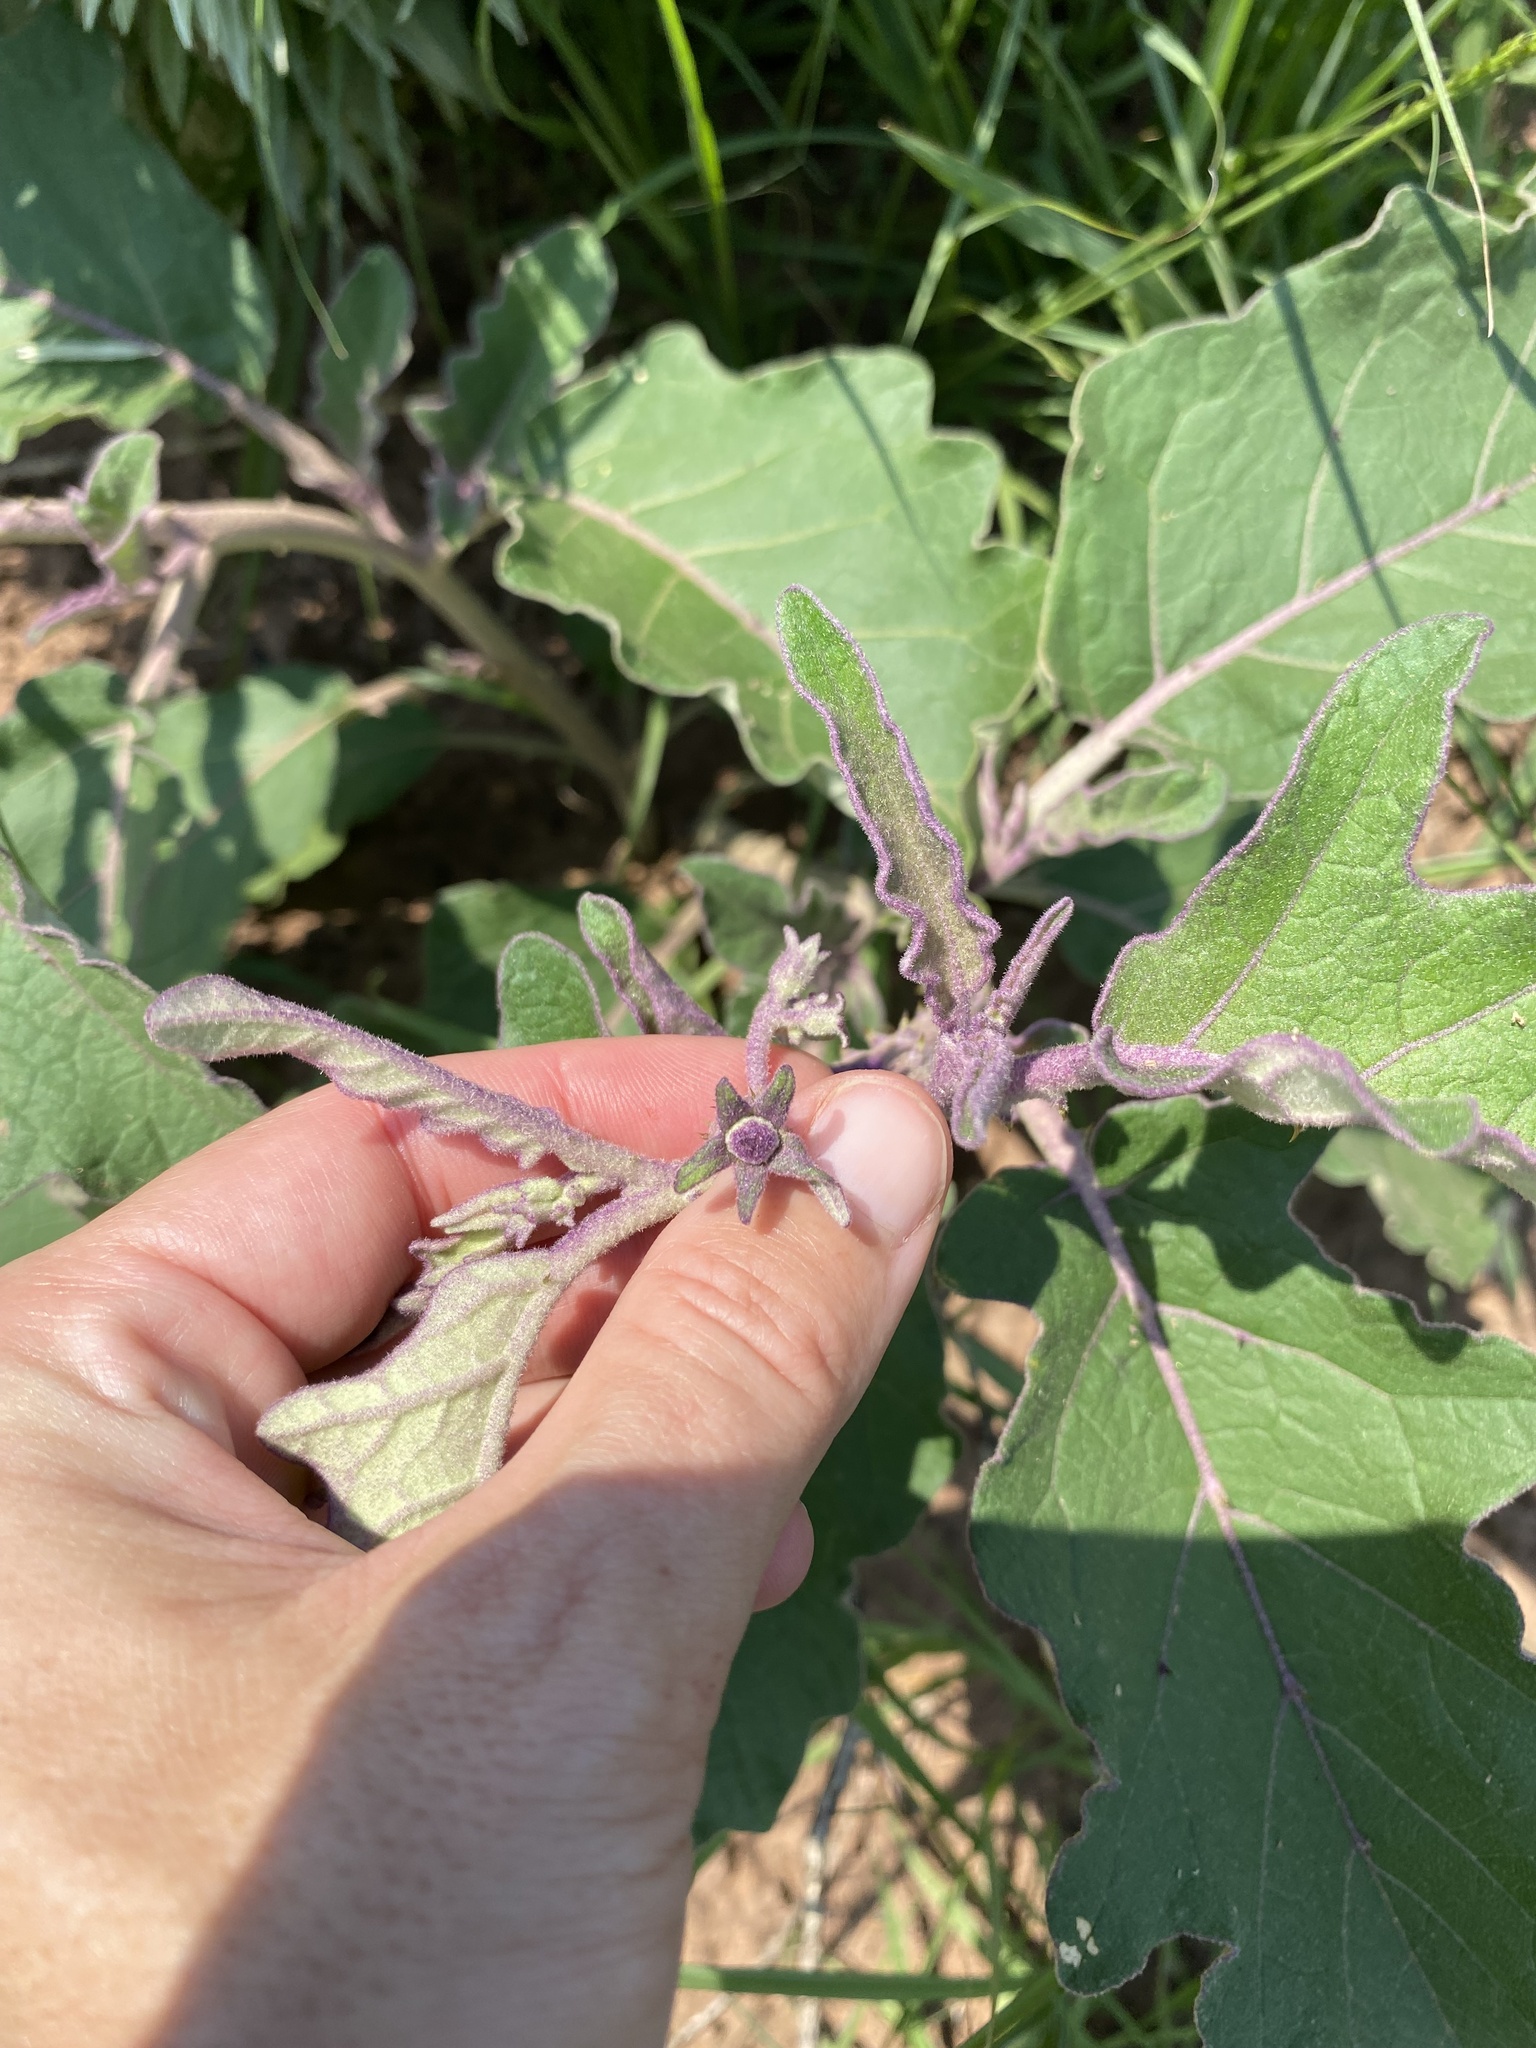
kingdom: Plantae
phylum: Tracheophyta
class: Magnoliopsida
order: Solanales
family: Solanaceae
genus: Solanum
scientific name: Solanum lichtensteinii
